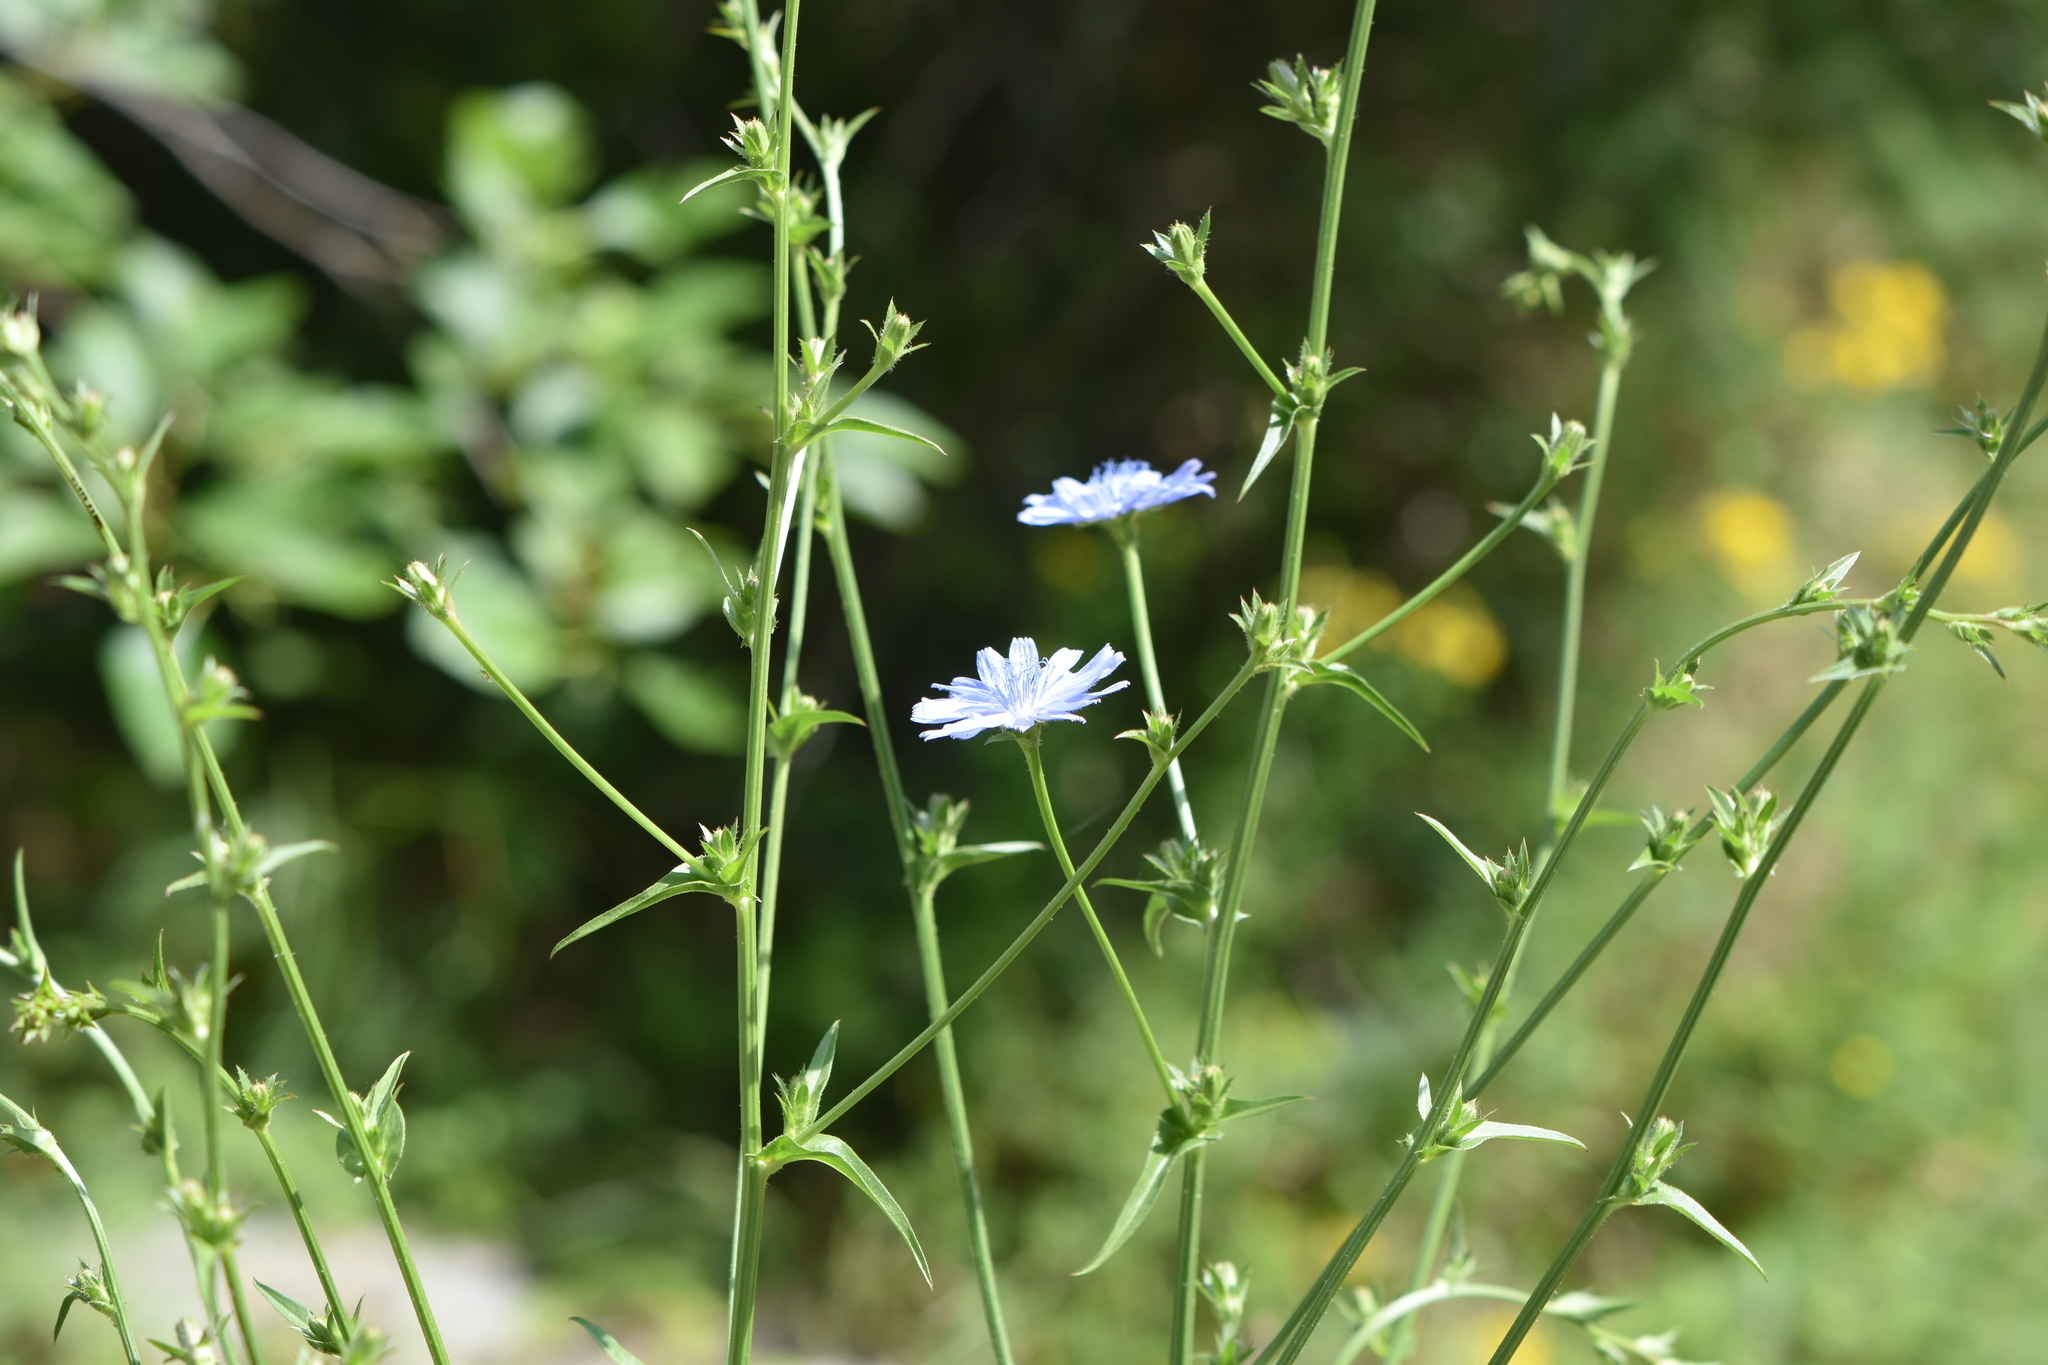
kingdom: Plantae
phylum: Tracheophyta
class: Magnoliopsida
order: Asterales
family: Asteraceae
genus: Cichorium
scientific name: Cichorium intybus
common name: Chicory
